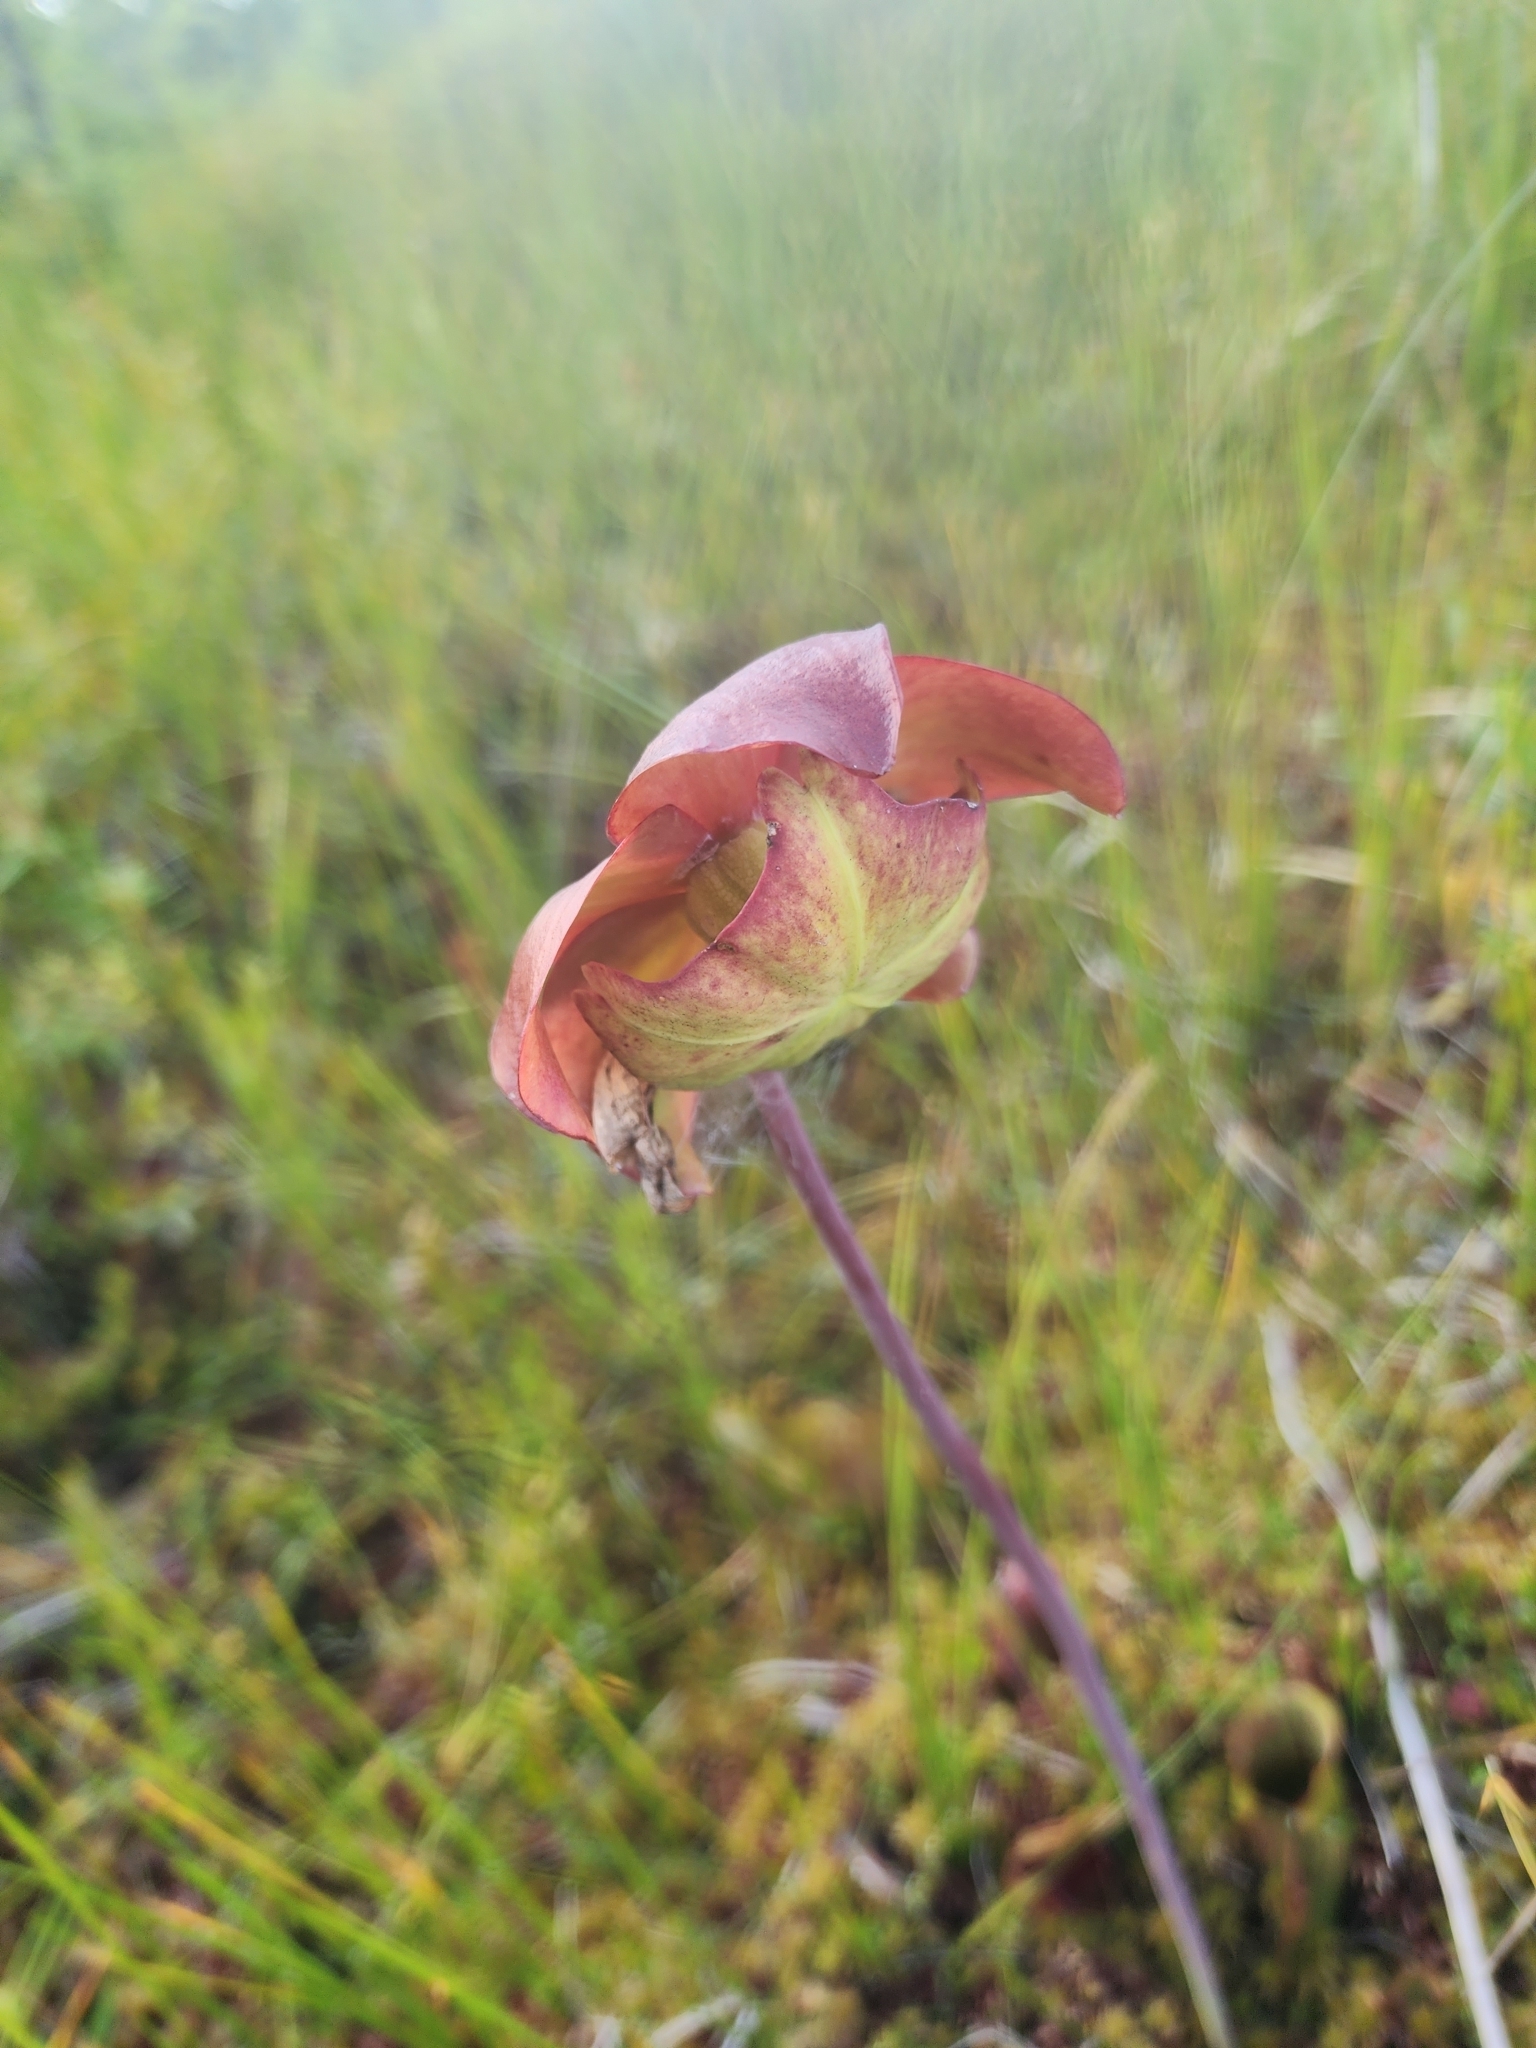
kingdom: Plantae
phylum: Tracheophyta
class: Magnoliopsida
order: Ericales
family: Sarraceniaceae
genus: Sarracenia
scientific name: Sarracenia purpurea
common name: Pitcherplant
